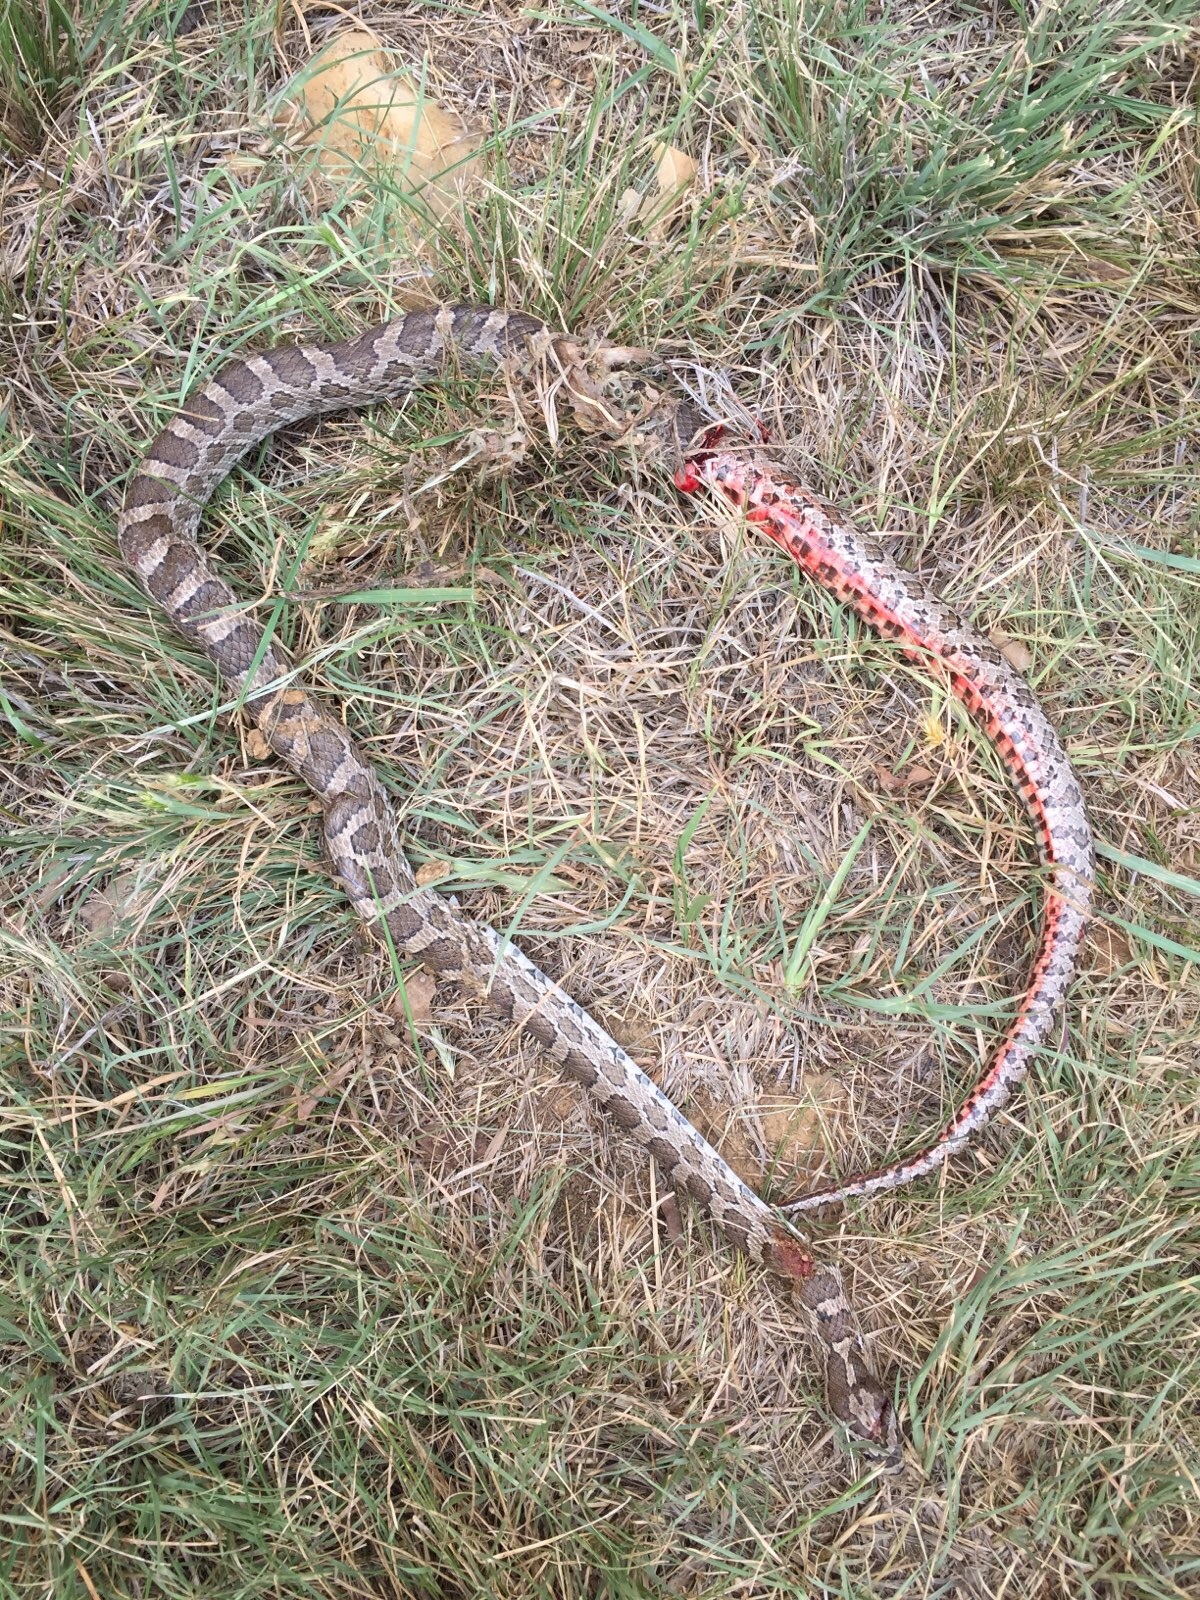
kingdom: Animalia
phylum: Chordata
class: Squamata
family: Colubridae
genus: Pantherophis
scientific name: Pantherophis emoryi
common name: Great plains rat snake
